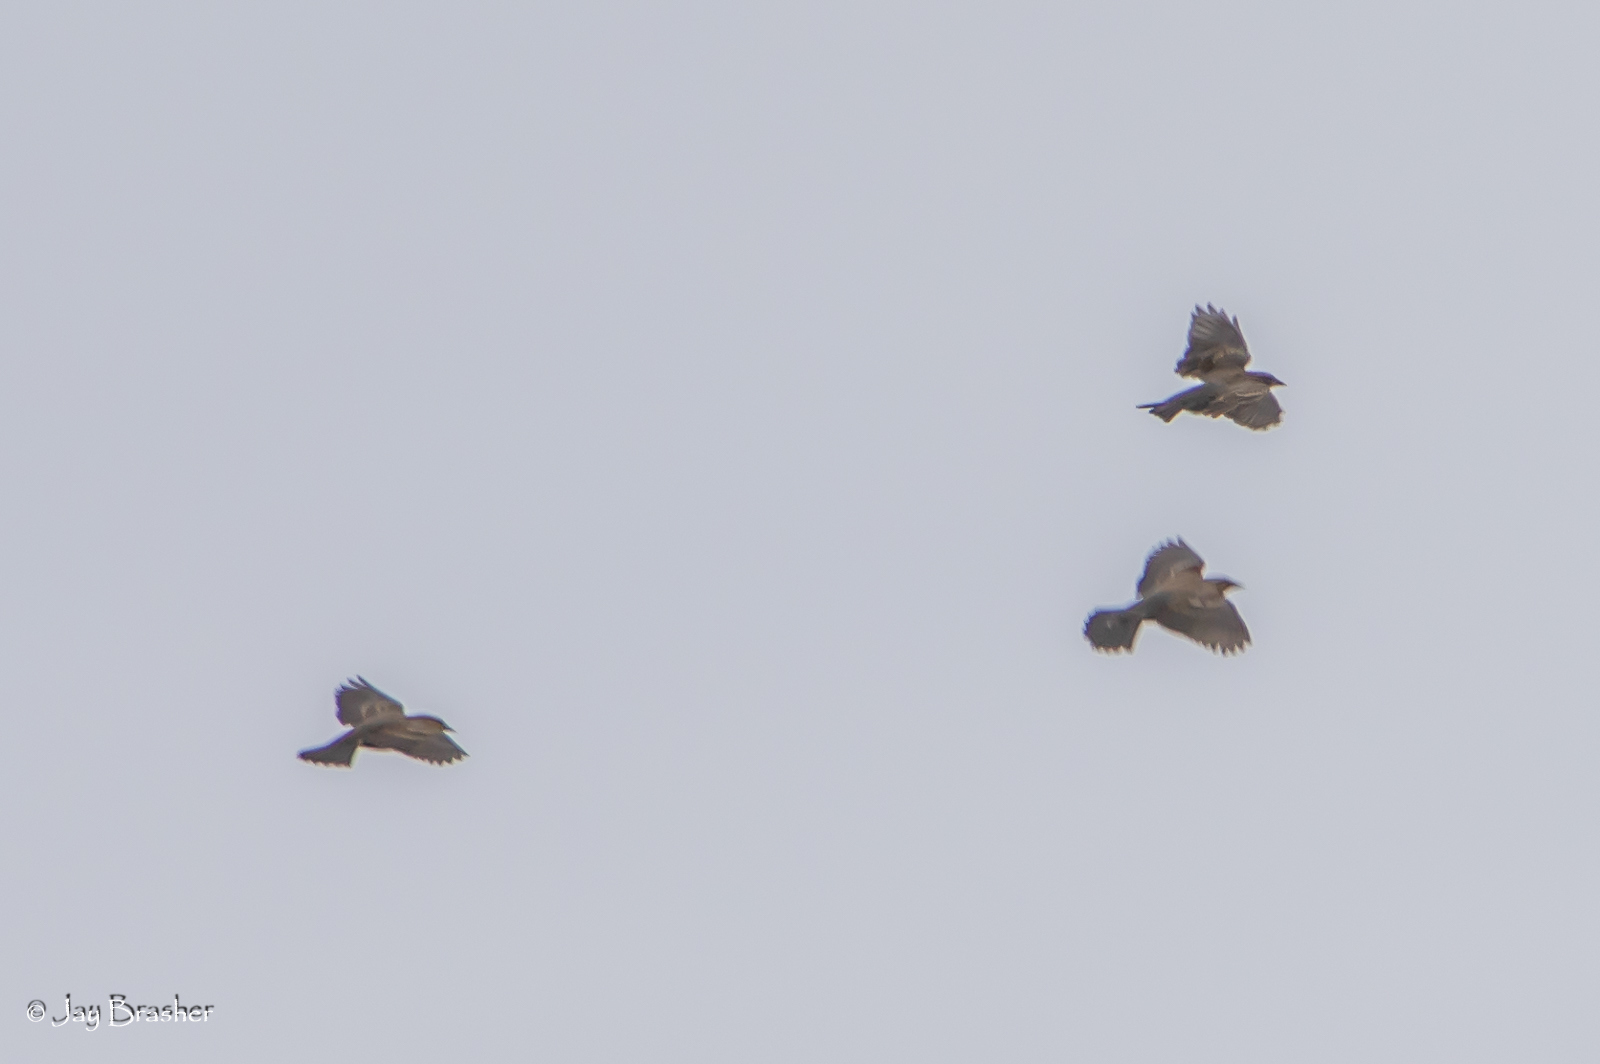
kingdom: Animalia
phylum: Chordata
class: Aves
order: Passeriformes
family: Icteridae
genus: Agelaius
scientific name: Agelaius phoeniceus
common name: Red-winged blackbird
